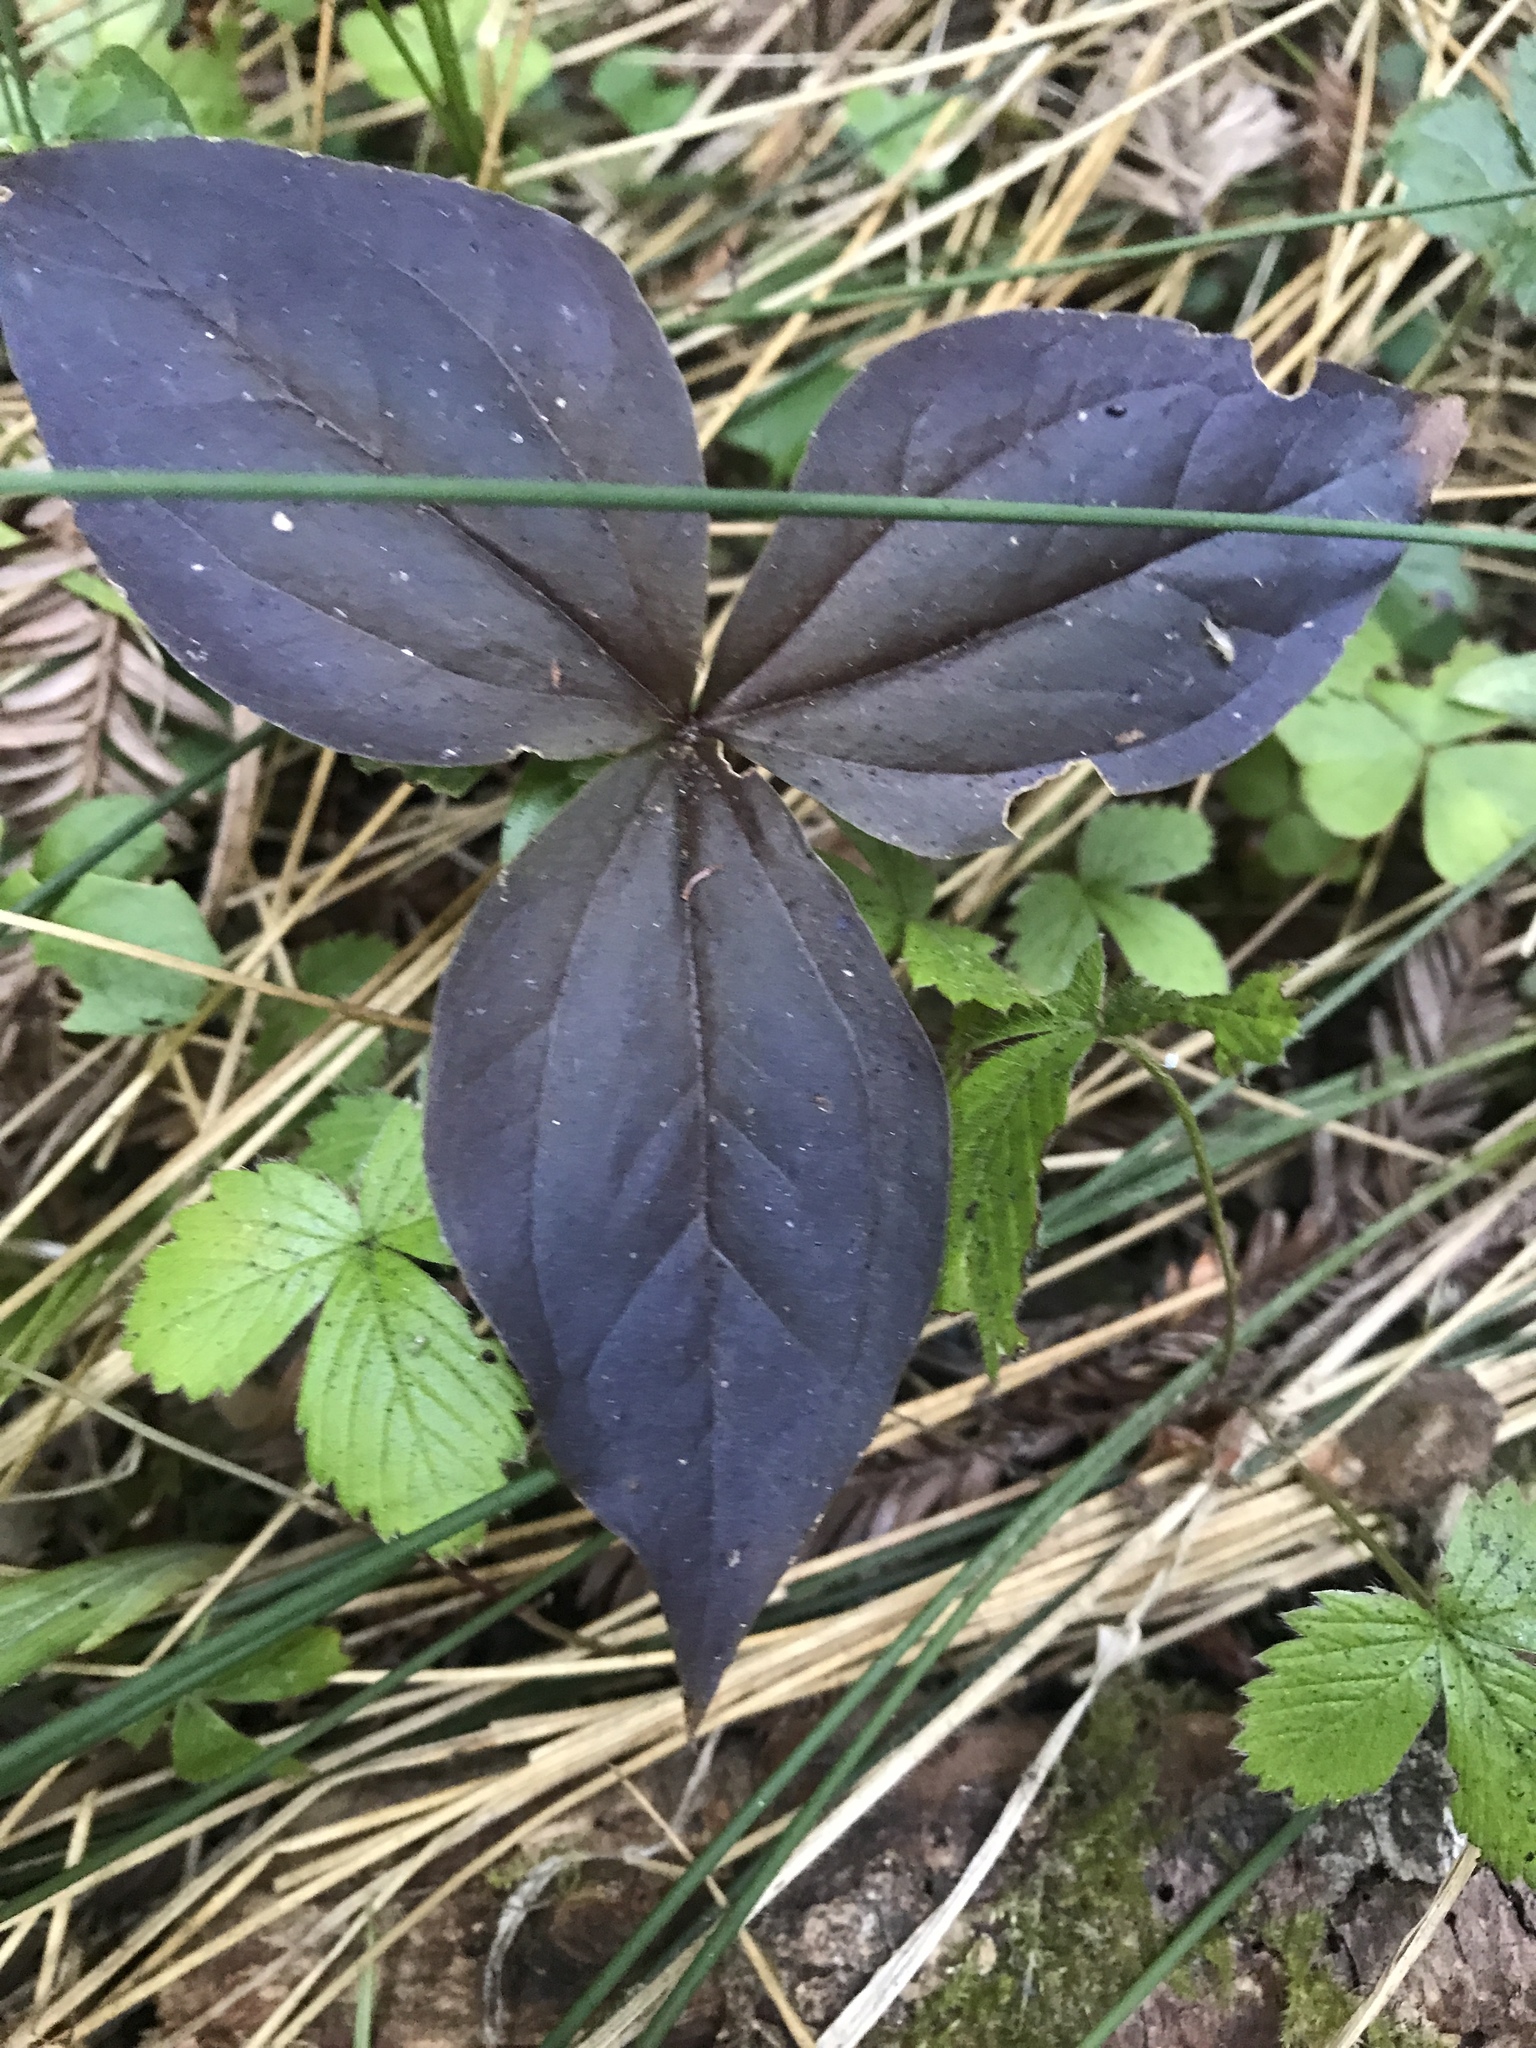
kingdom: Plantae
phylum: Tracheophyta
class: Liliopsida
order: Liliales
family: Melanthiaceae
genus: Trillium
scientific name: Trillium ovatum
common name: Pacific trillium
